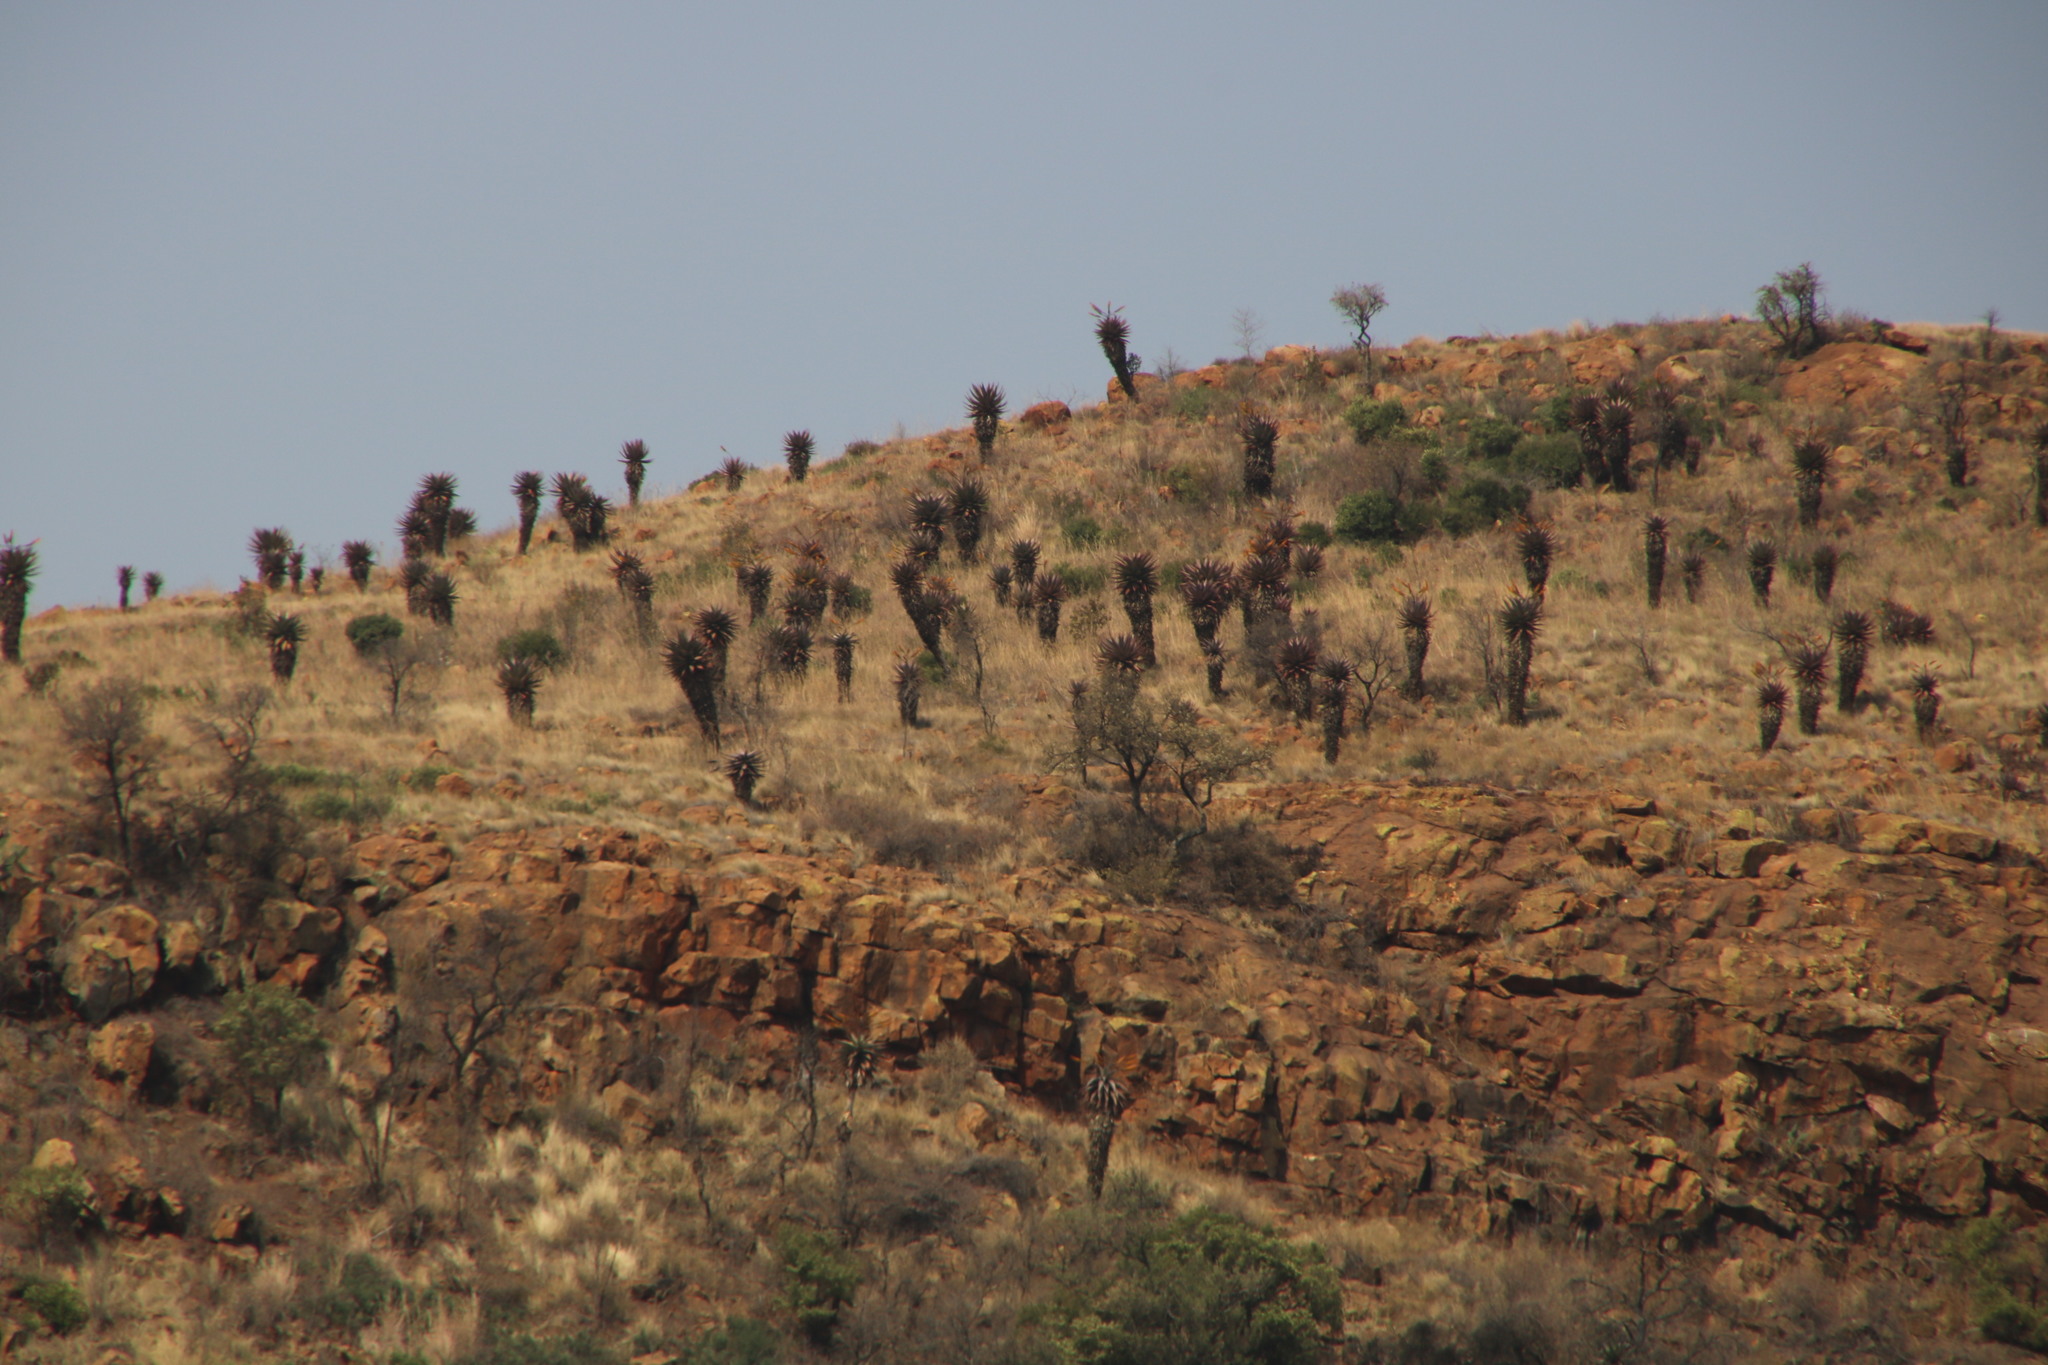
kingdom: Plantae
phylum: Tracheophyta
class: Liliopsida
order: Asparagales
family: Asphodelaceae
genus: Aloe
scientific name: Aloe marlothii
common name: Flat-flowered aloe
